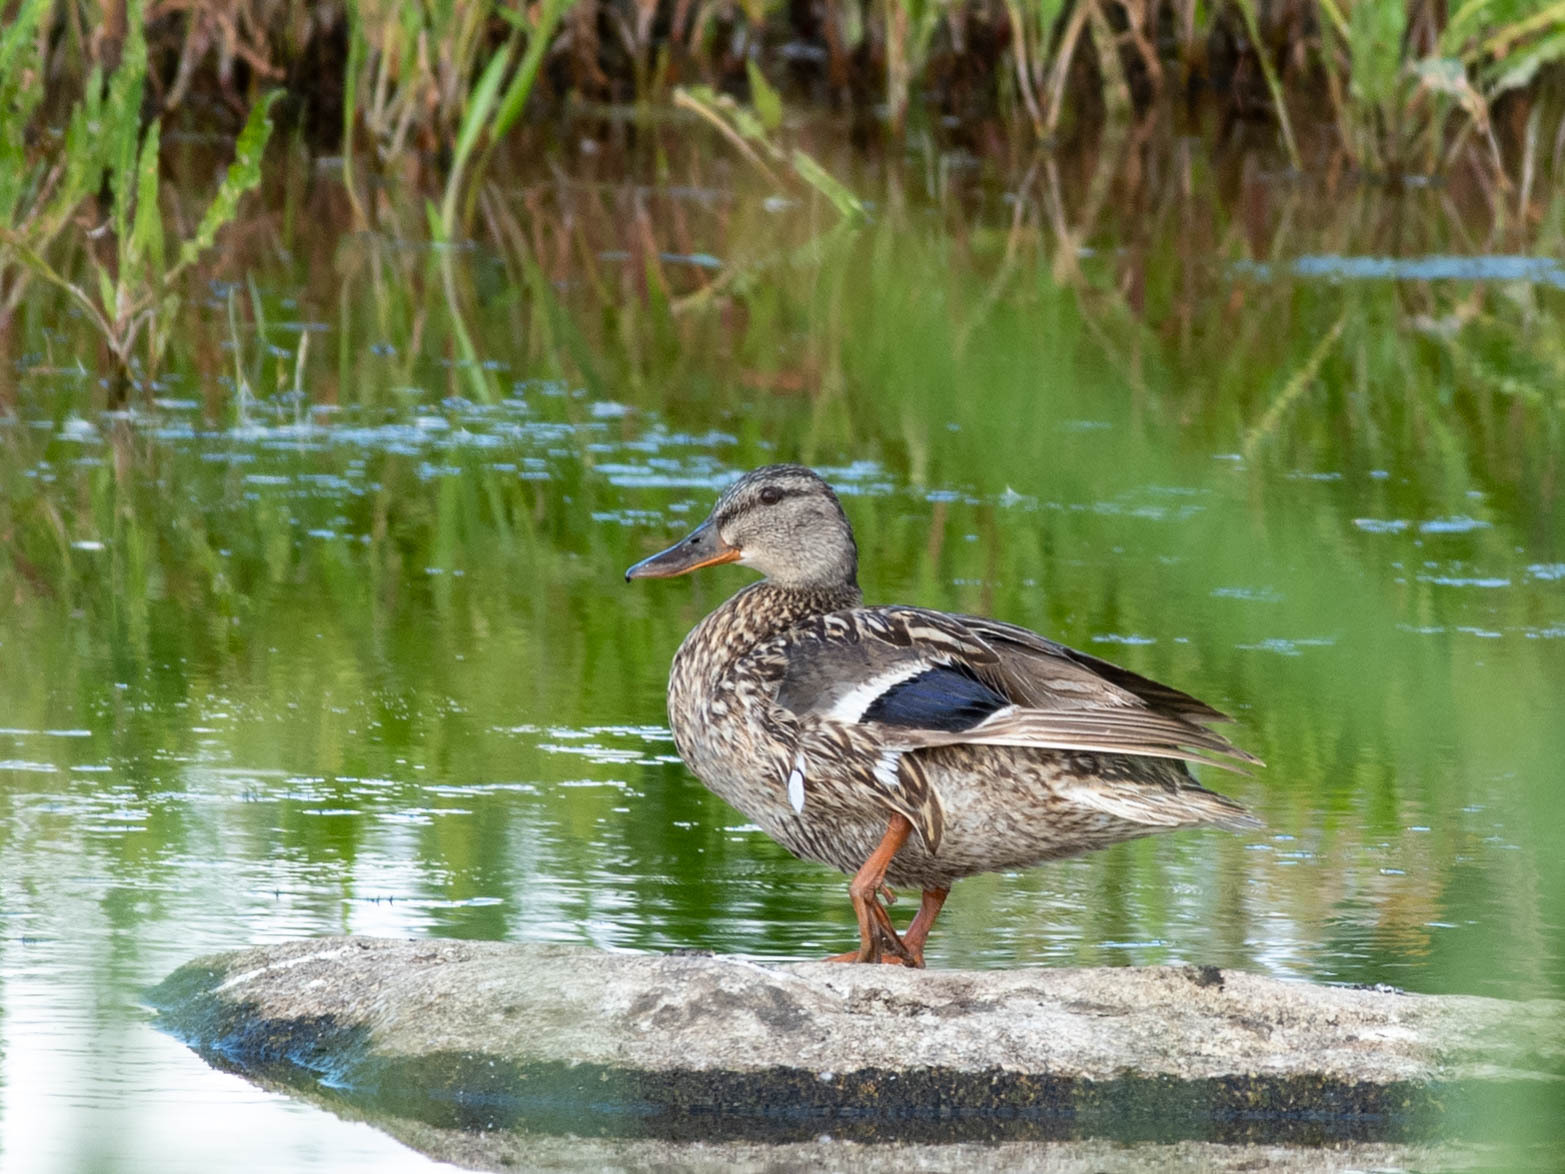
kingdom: Animalia
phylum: Chordata
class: Aves
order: Anseriformes
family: Anatidae
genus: Anas
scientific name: Anas platyrhynchos
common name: Mallard
